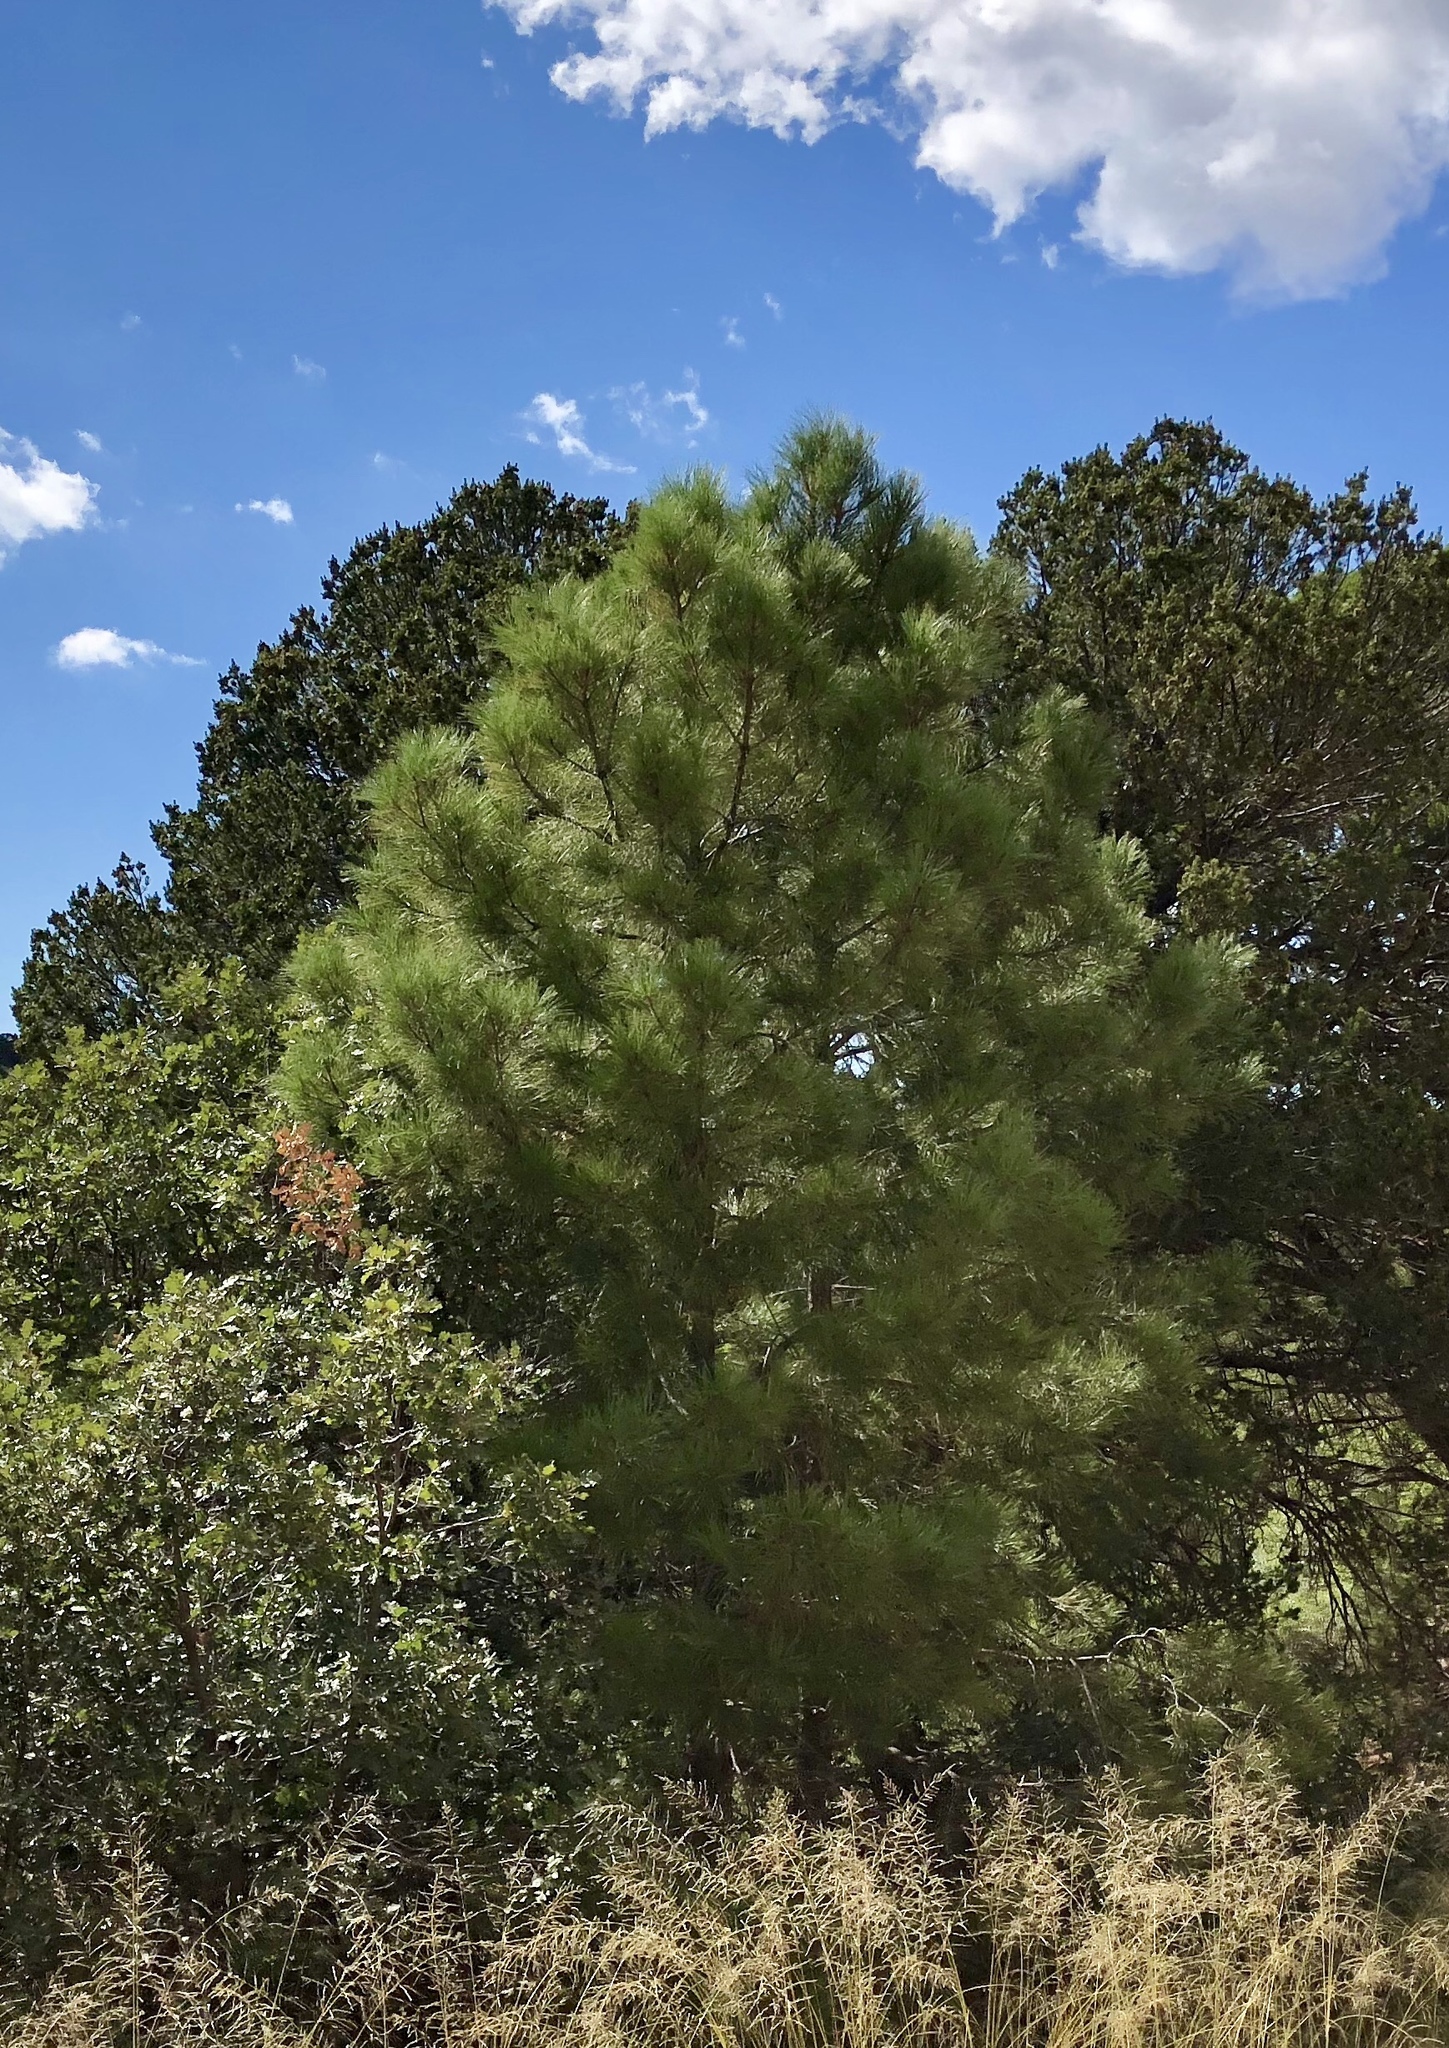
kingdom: Plantae
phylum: Tracheophyta
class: Pinopsida
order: Pinales
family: Pinaceae
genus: Pinus
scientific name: Pinus ponderosa
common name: Western yellow-pine
